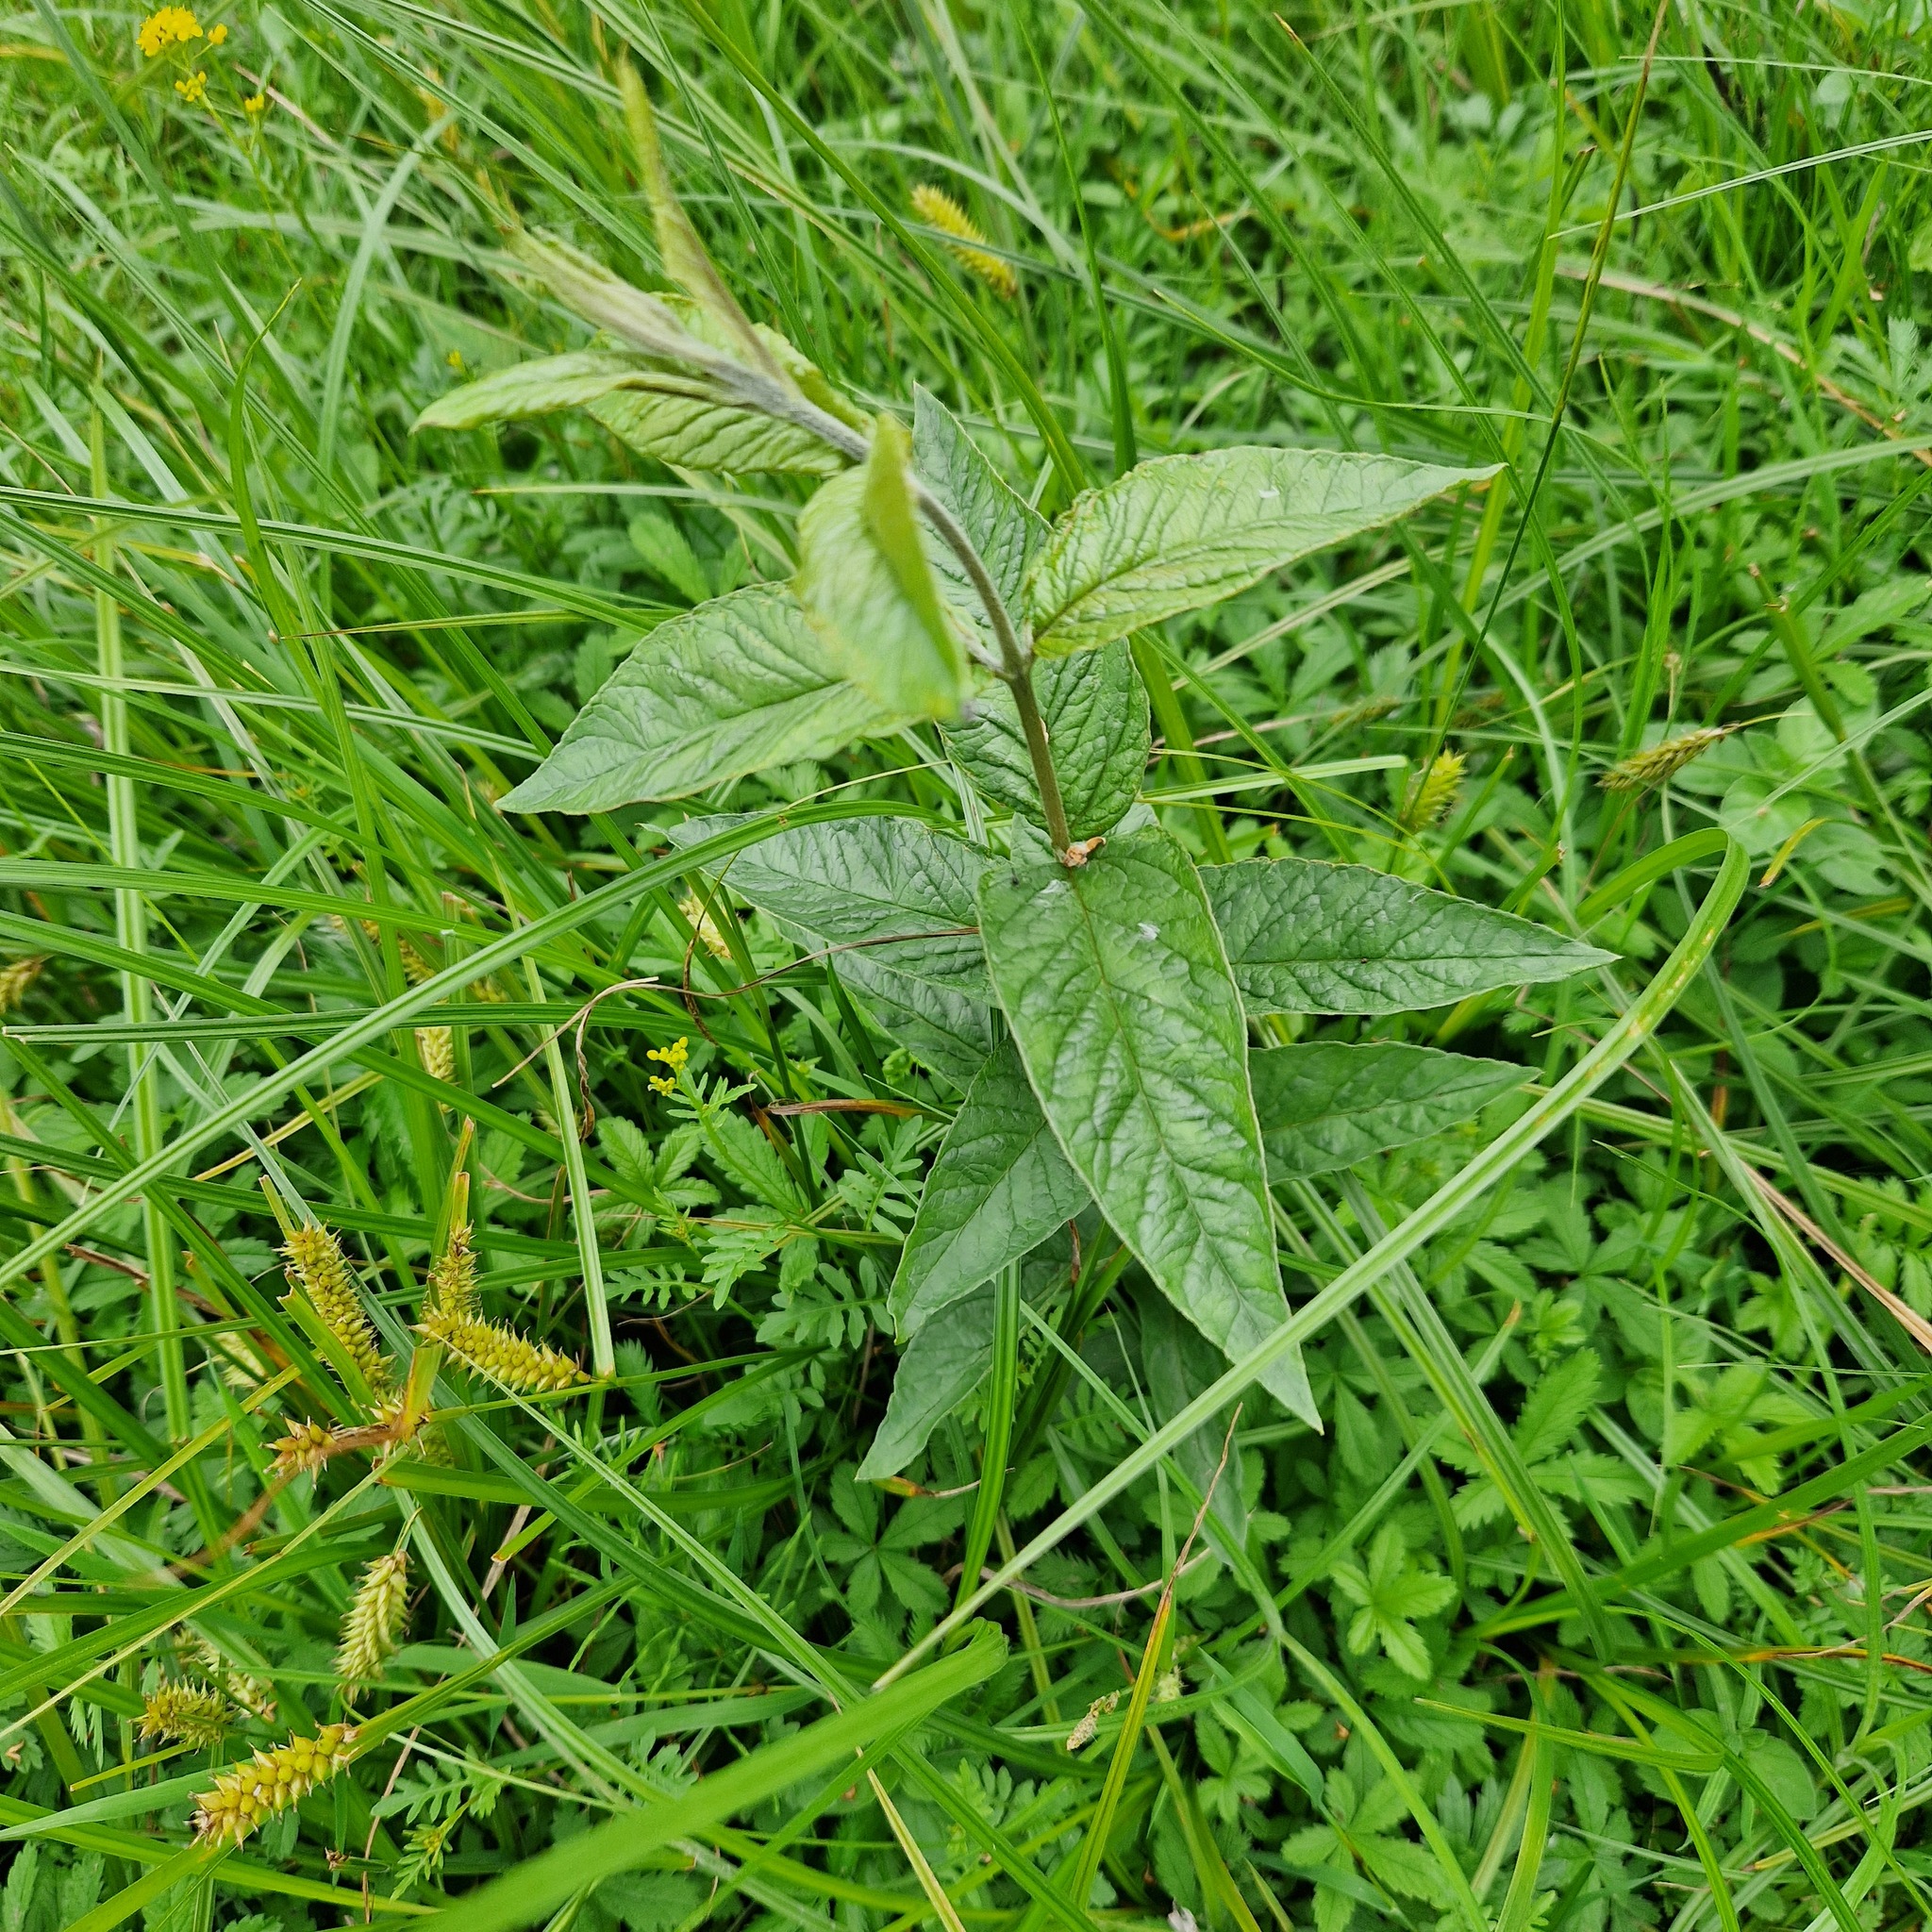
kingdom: Plantae
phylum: Tracheophyta
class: Magnoliopsida
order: Ericales
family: Primulaceae
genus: Lysimachia
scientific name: Lysimachia vulgaris
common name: Yellow loosestrife
